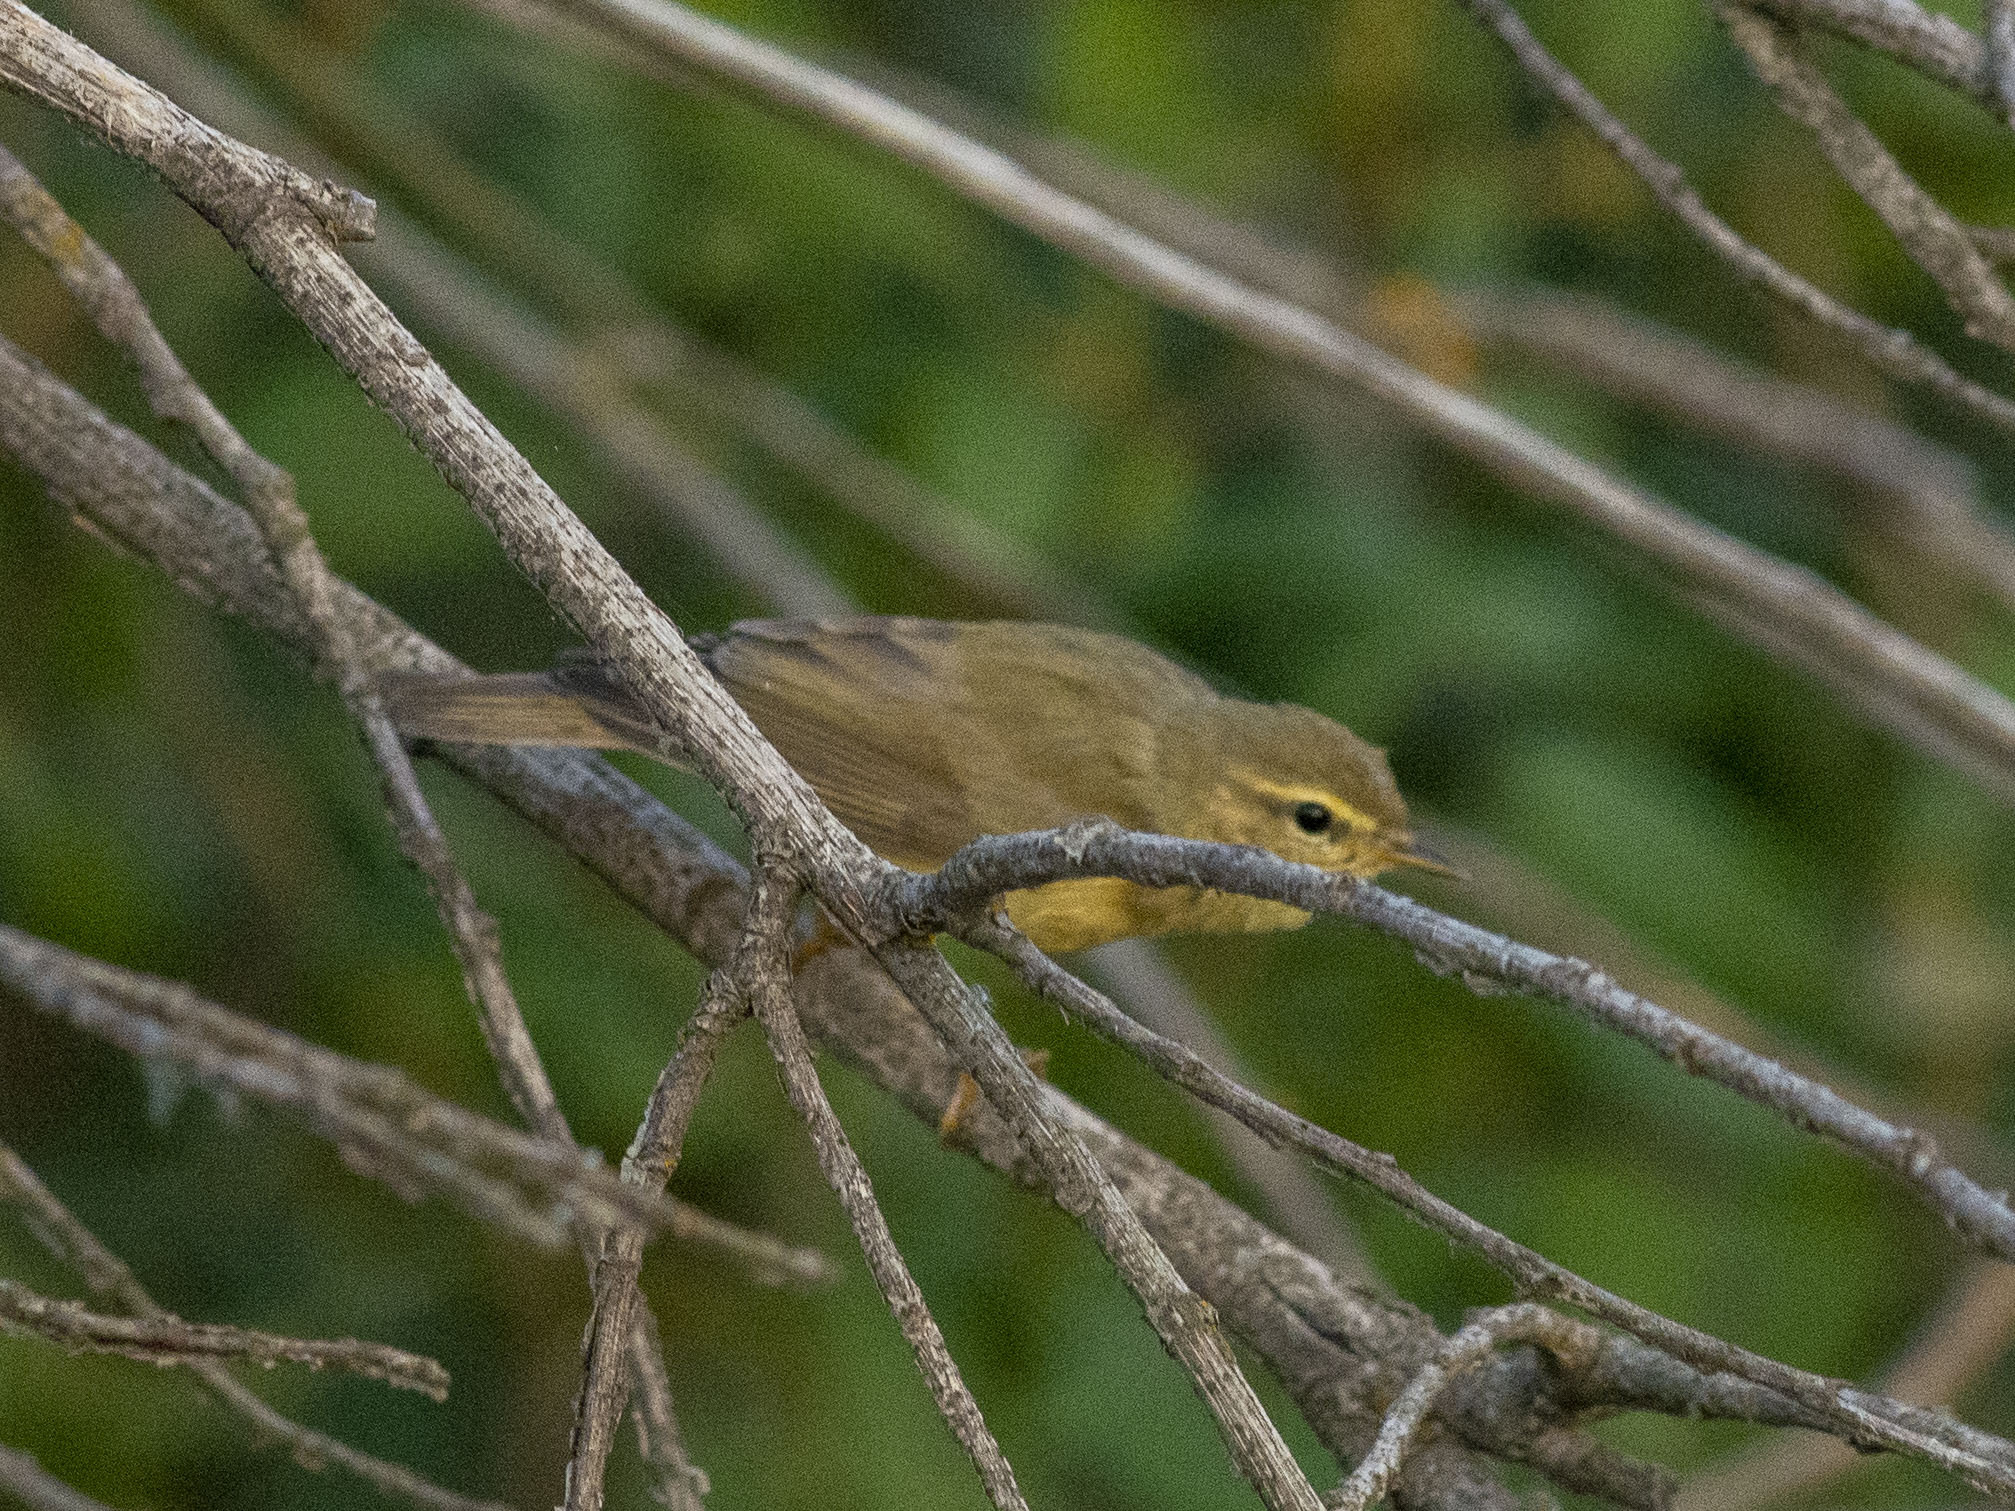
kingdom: Animalia
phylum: Chordata
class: Aves
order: Passeriformes
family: Phylloscopidae
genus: Phylloscopus
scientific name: Phylloscopus trochilus
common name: Willow warbler
